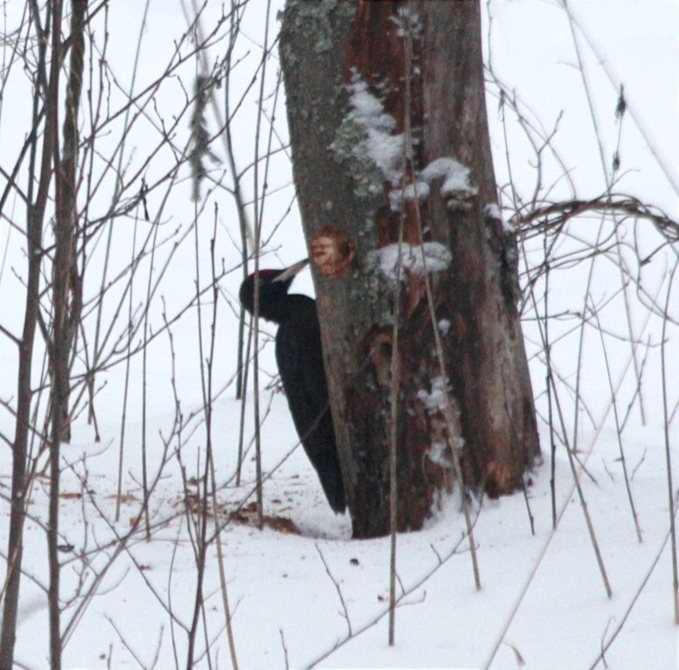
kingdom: Animalia
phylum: Chordata
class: Aves
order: Piciformes
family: Picidae
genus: Dryocopus
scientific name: Dryocopus martius
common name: Black woodpecker
